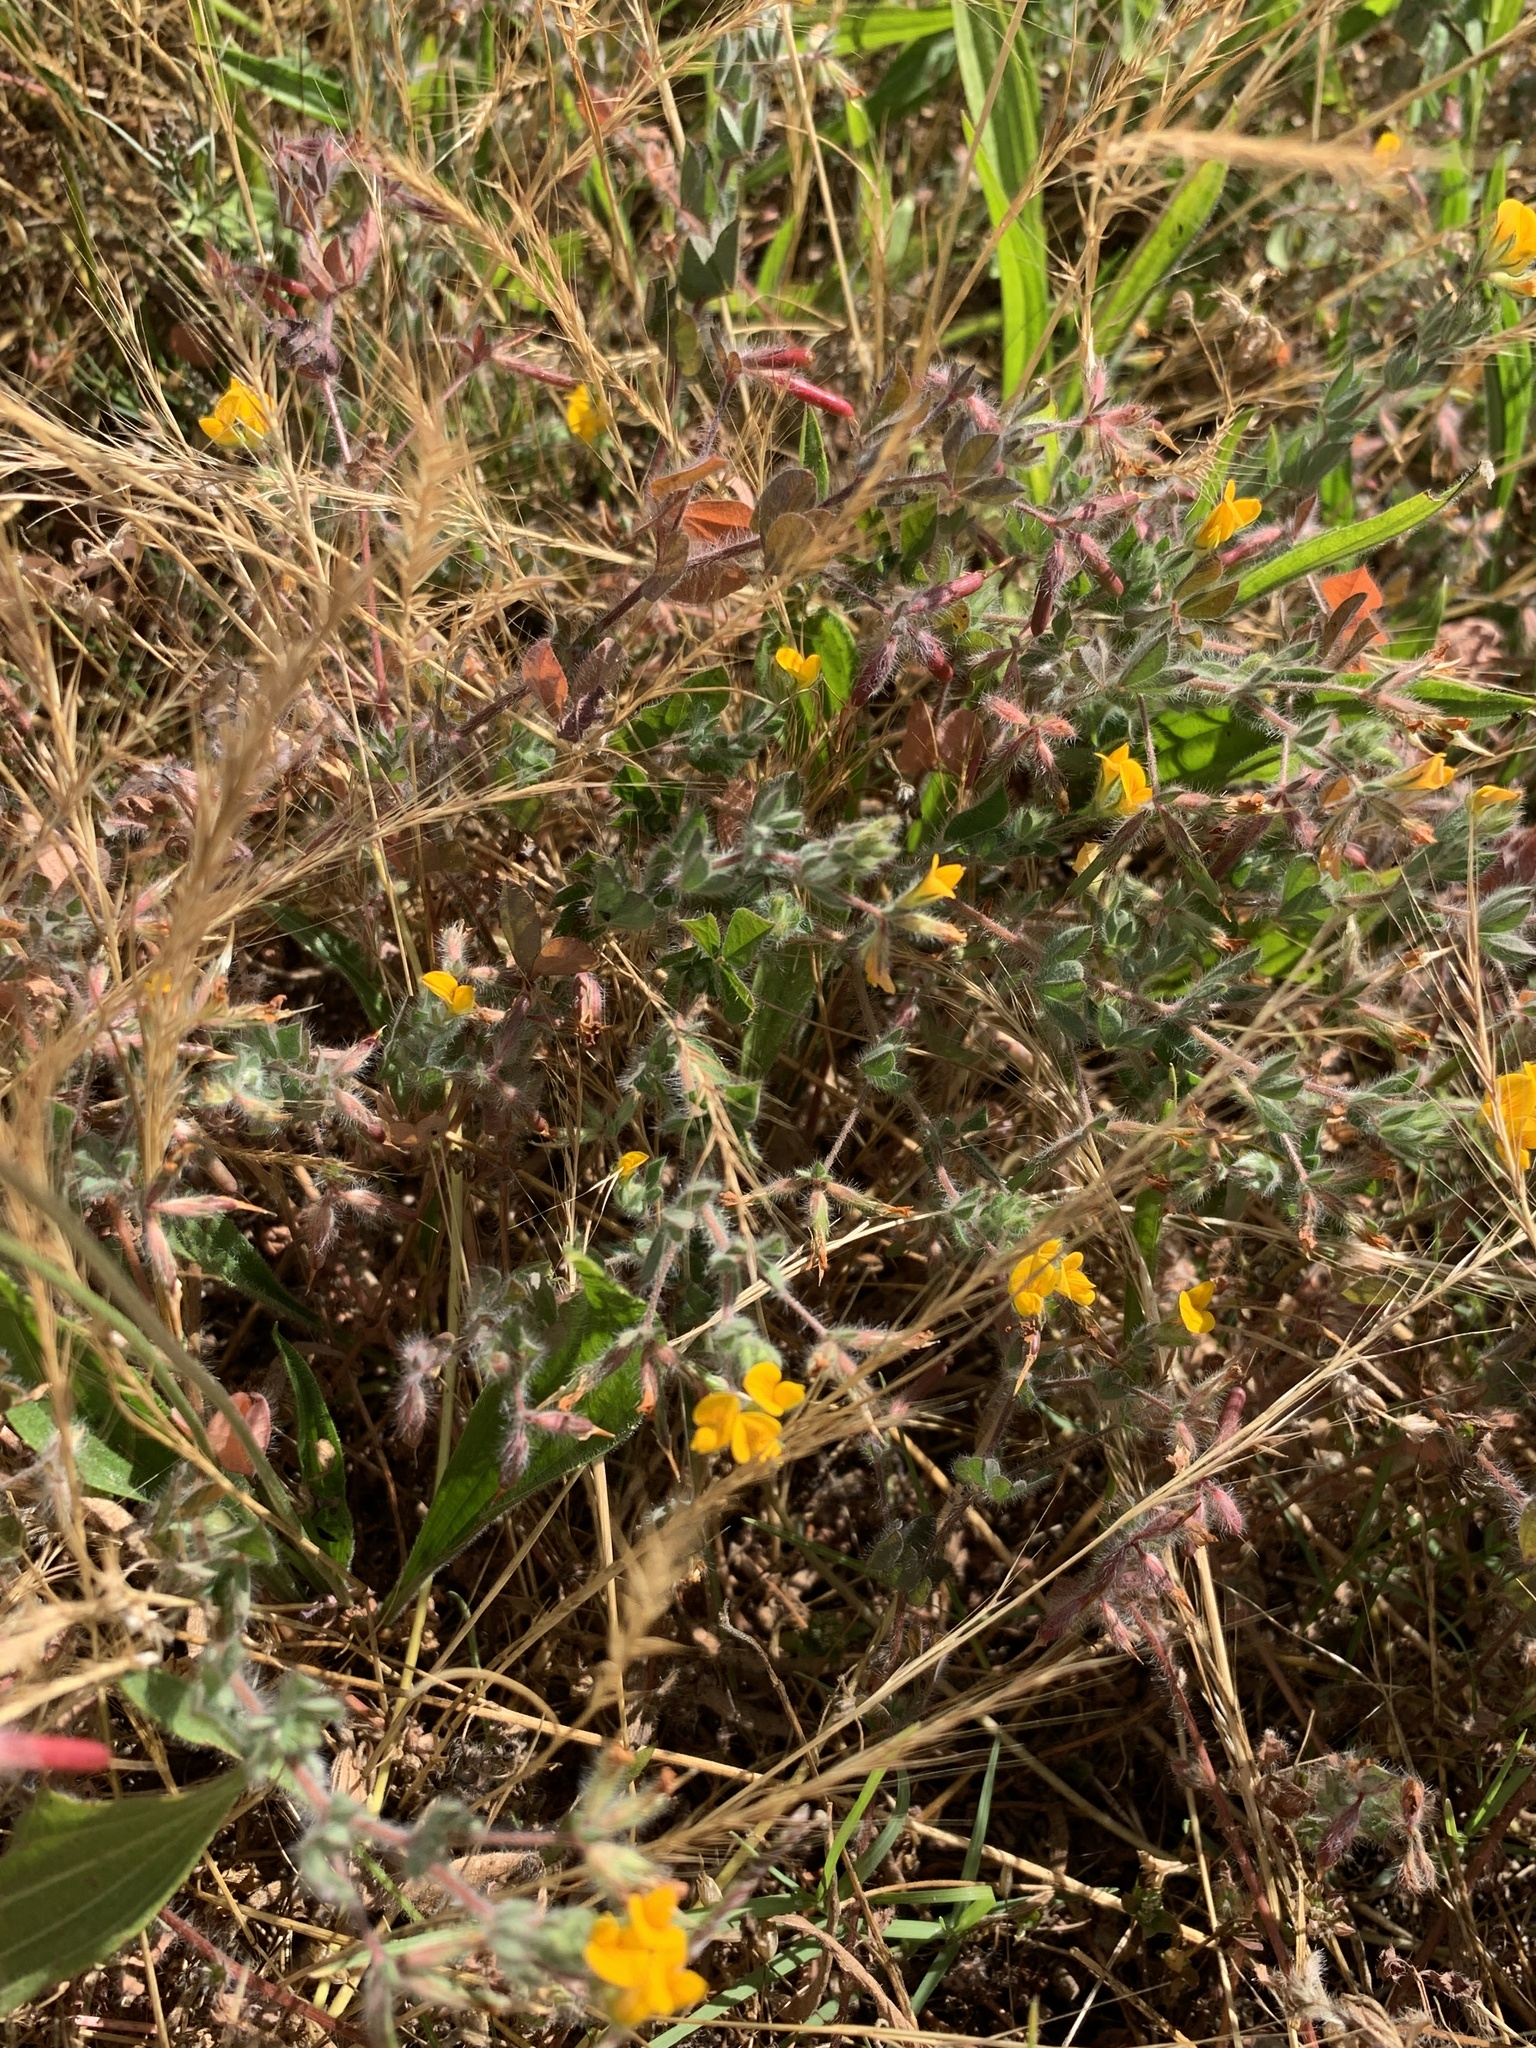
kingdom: Plantae
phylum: Tracheophyta
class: Magnoliopsida
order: Fabales
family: Fabaceae
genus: Lotus
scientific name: Lotus subbiflorus
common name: Hairy bird's-foot trefoil
